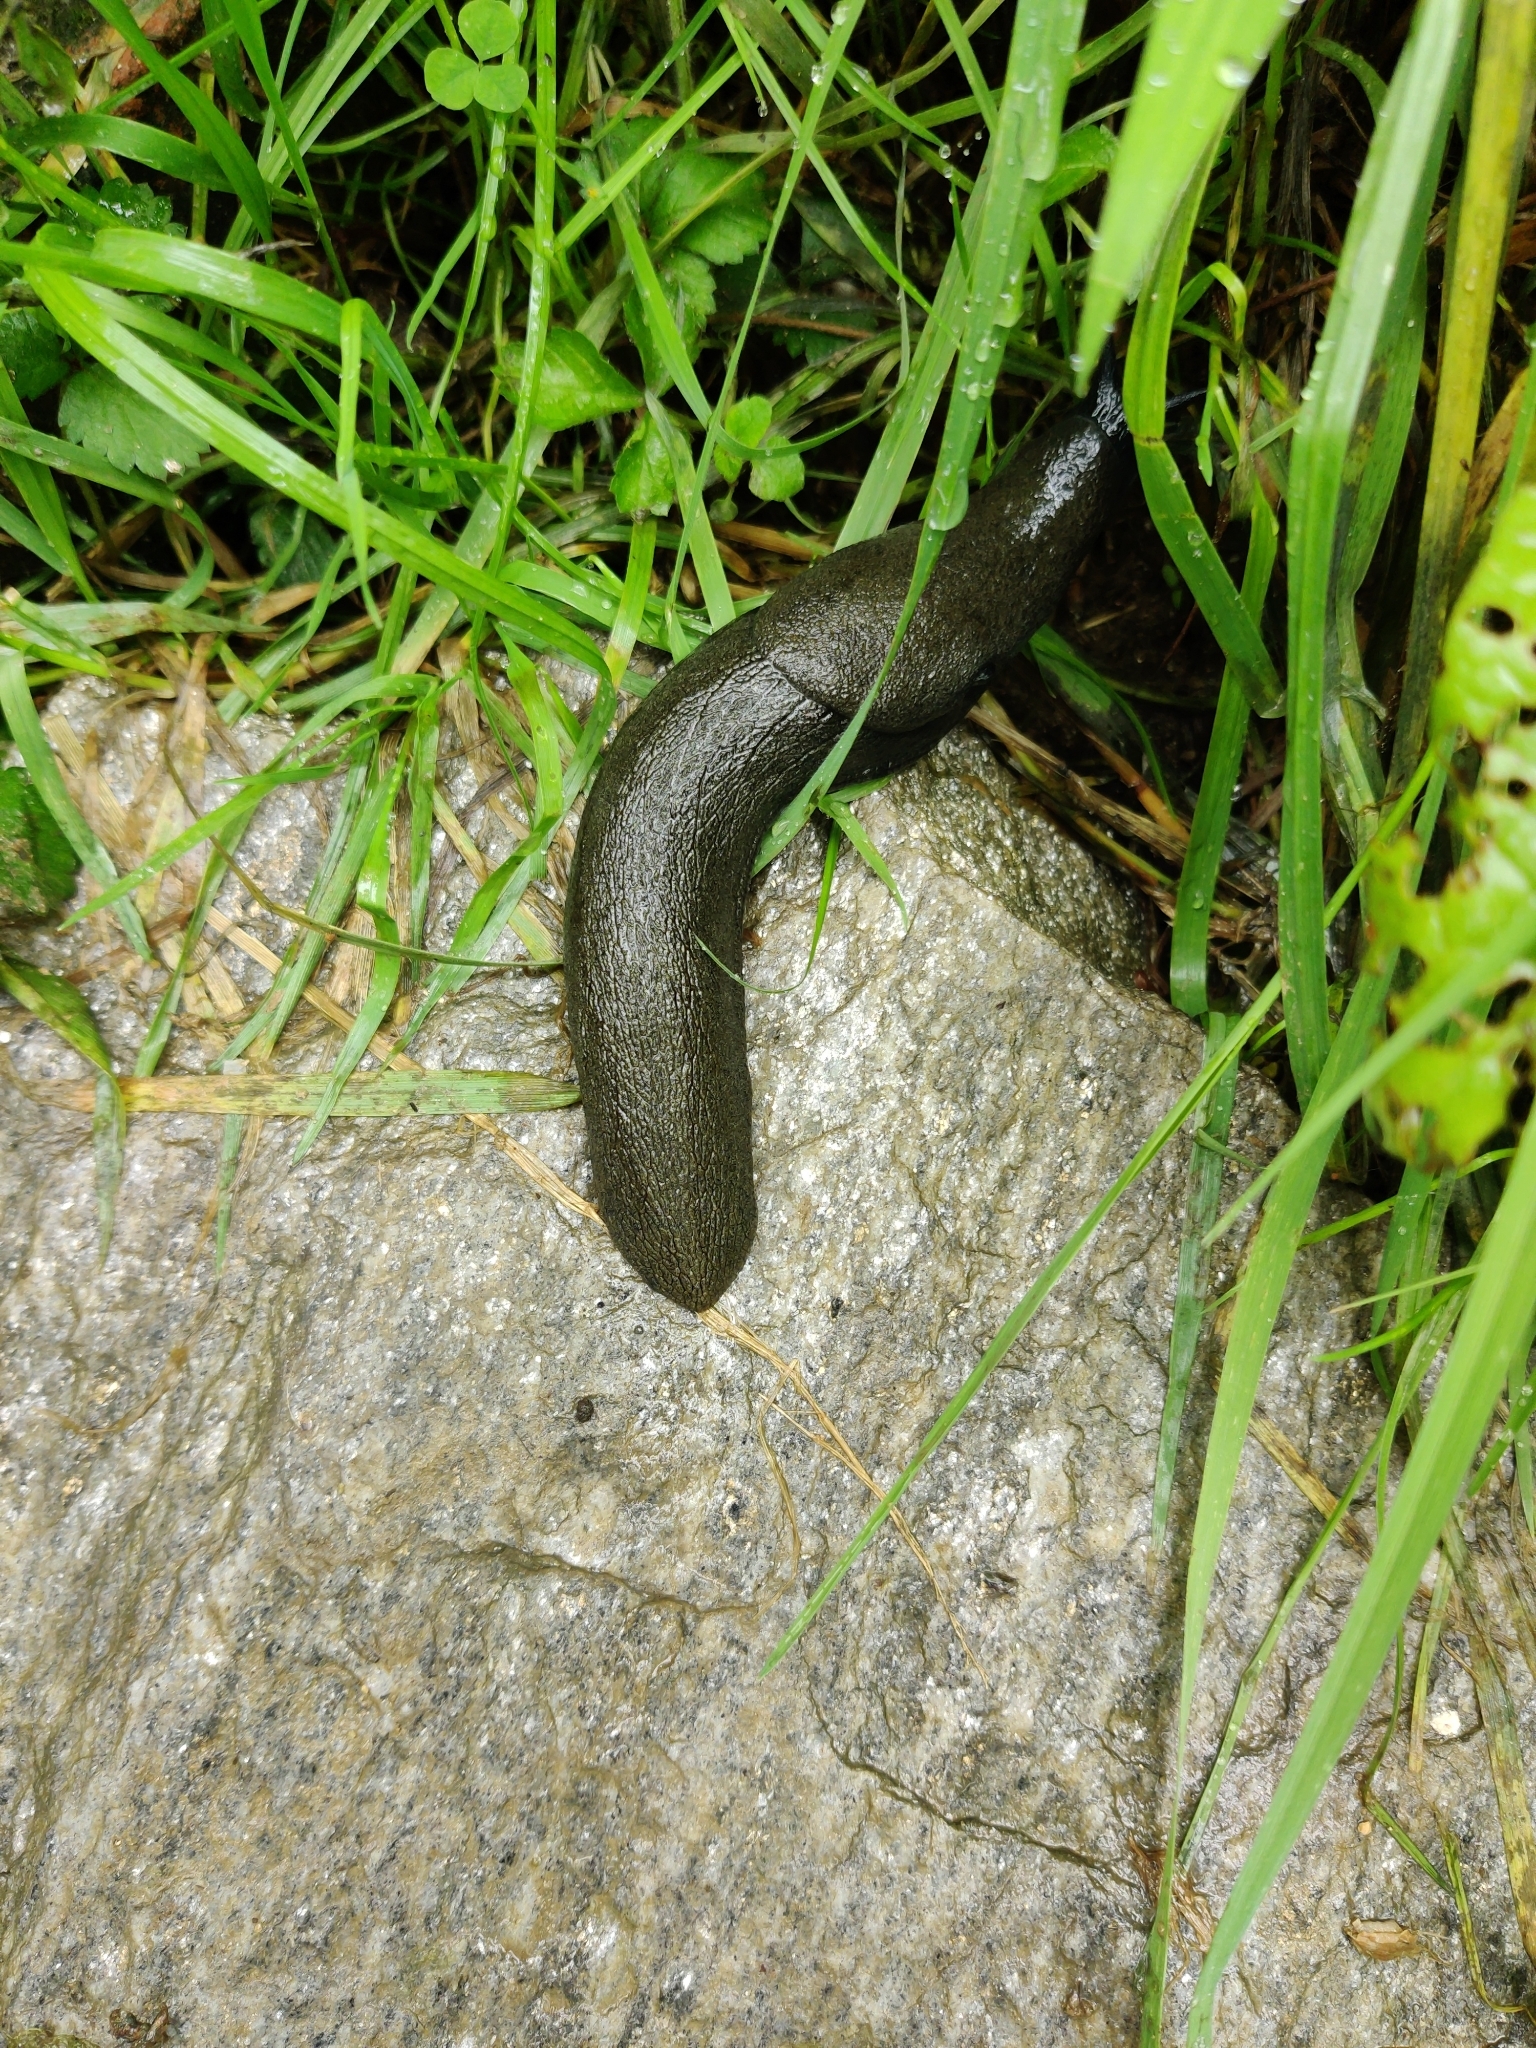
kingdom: Animalia
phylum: Mollusca
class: Gastropoda
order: Stylommatophora
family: Anadenidae
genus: Anadenus
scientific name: Anadenus altivagus
